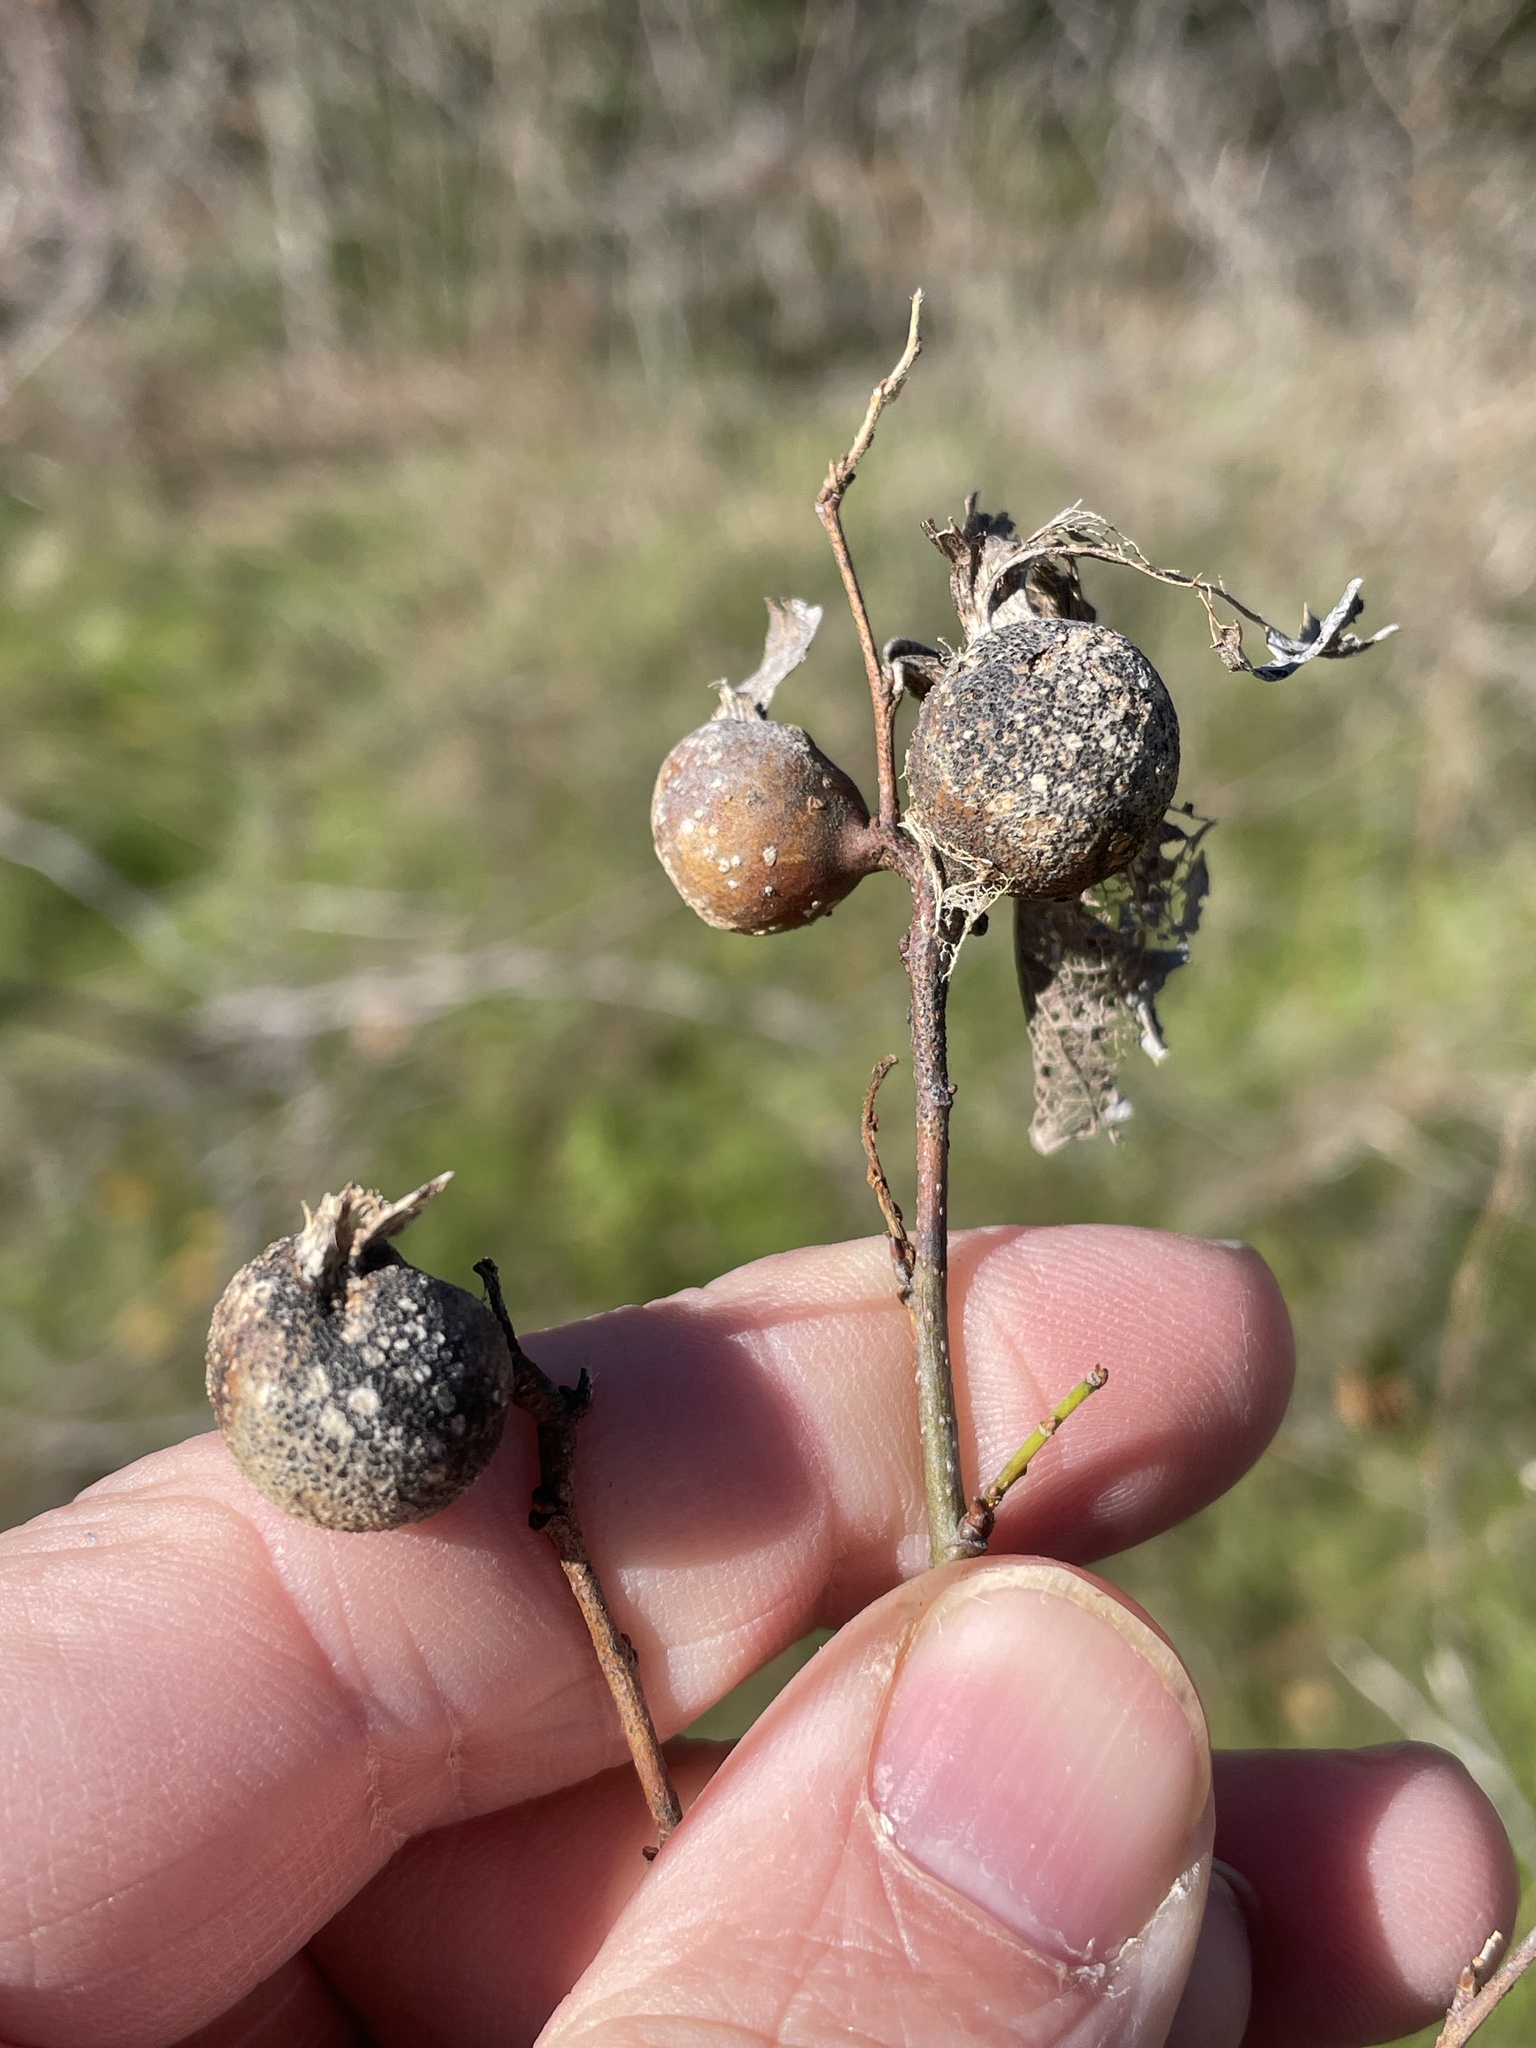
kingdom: Animalia
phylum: Arthropoda
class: Insecta
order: Hemiptera
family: Aphalaridae
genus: Pachypsylla
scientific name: Pachypsylla venusta
